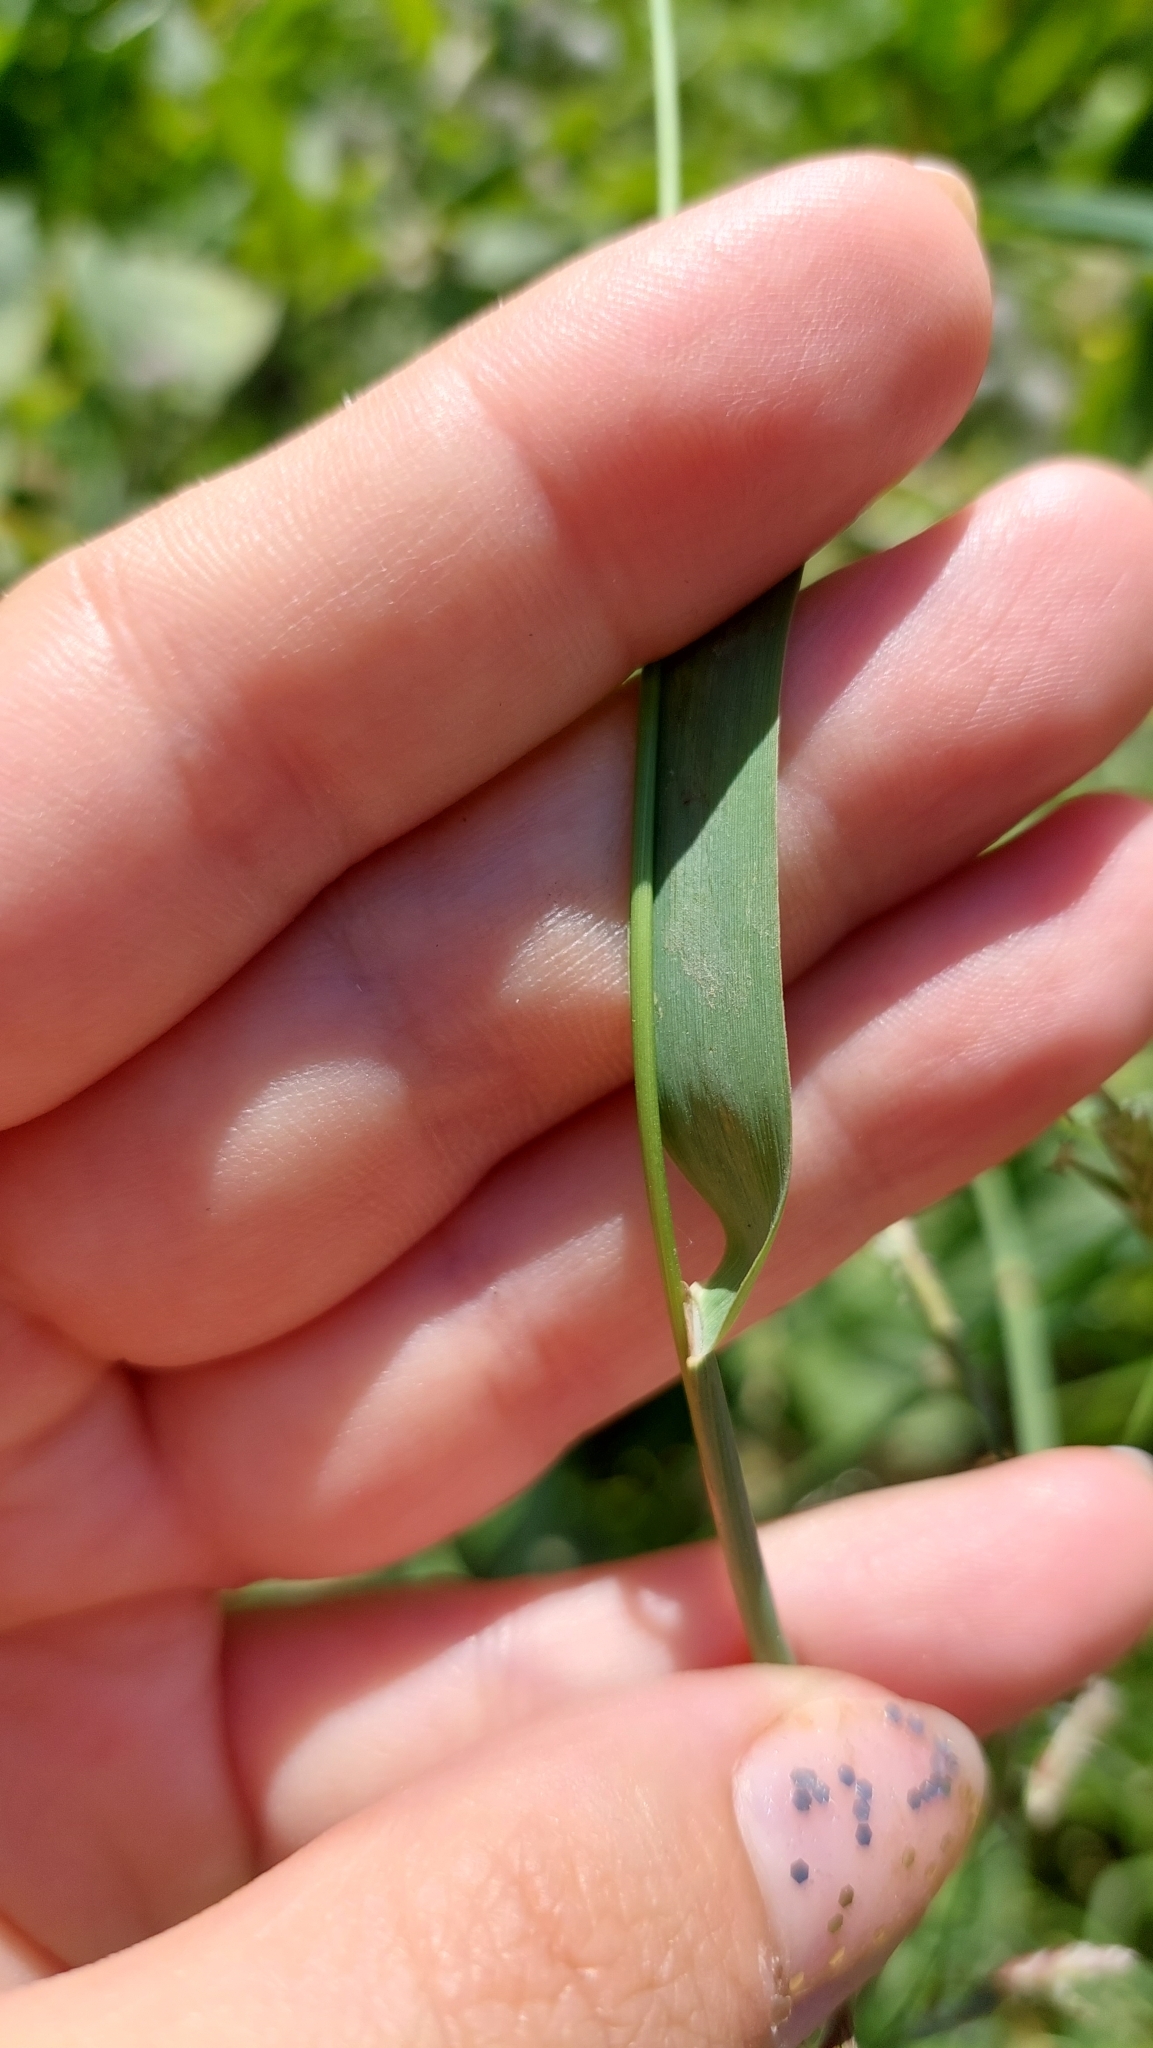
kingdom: Plantae
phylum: Tracheophyta
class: Liliopsida
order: Poales
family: Poaceae
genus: Phleum
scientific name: Phleum pratense
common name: Timothy grass
